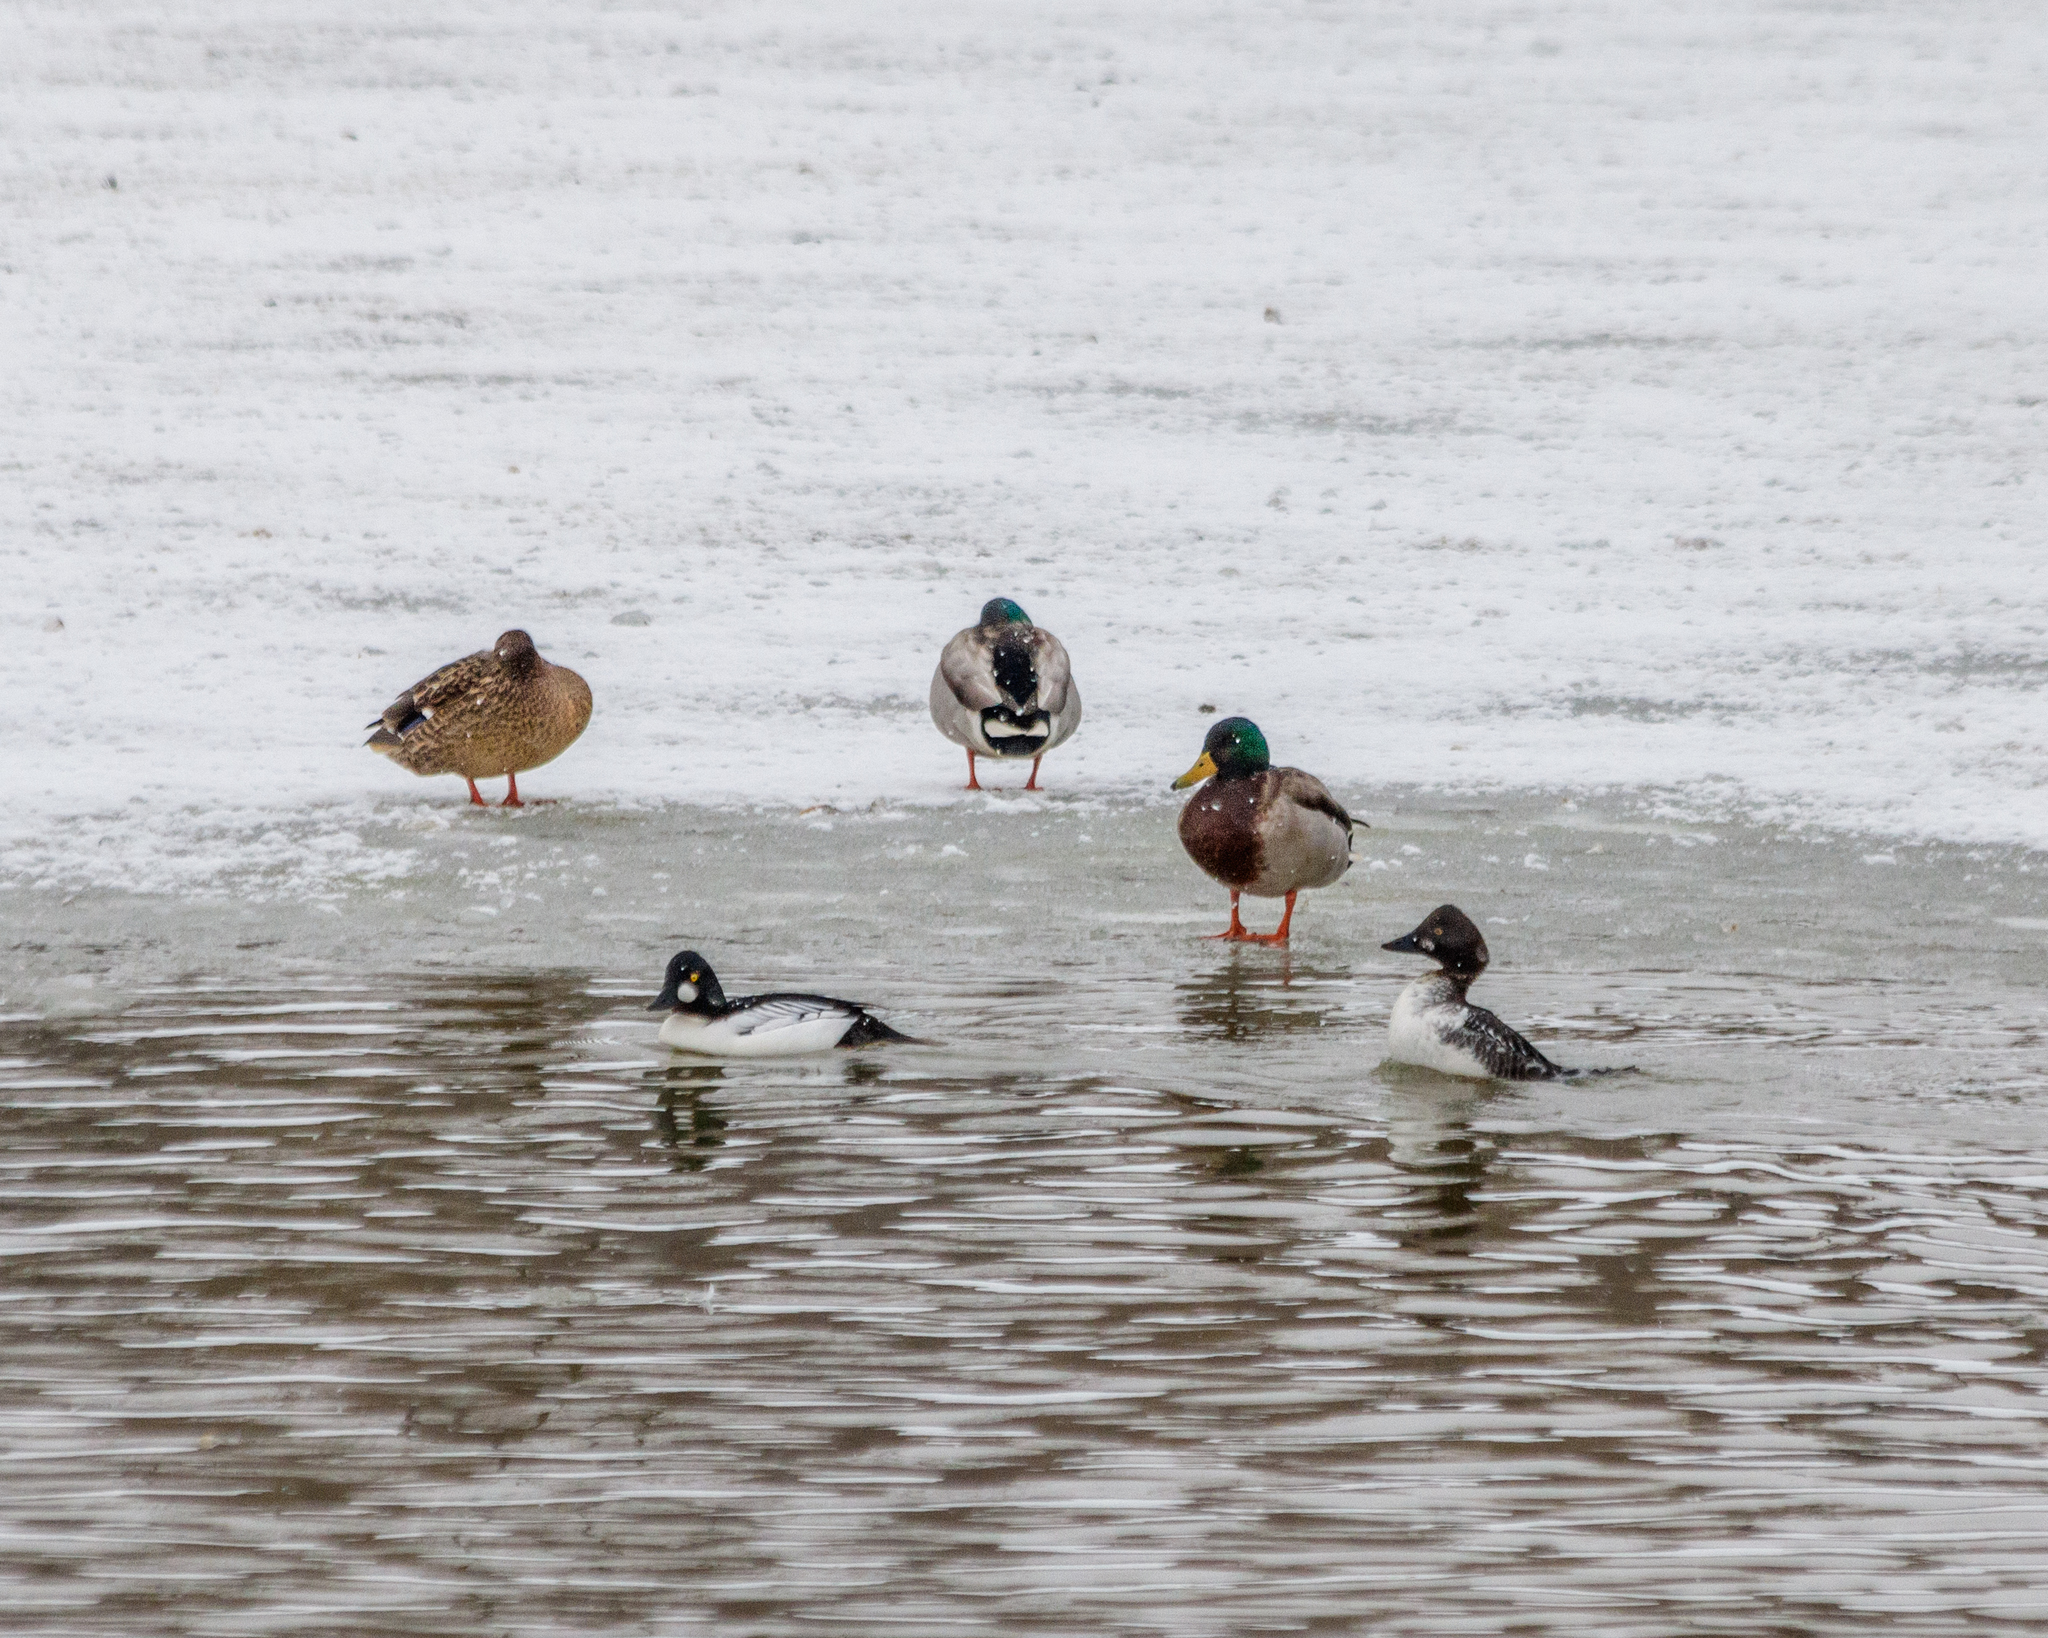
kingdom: Animalia
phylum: Chordata
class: Aves
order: Anseriformes
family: Anatidae
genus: Bucephala
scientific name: Bucephala clangula
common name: Common goldeneye
